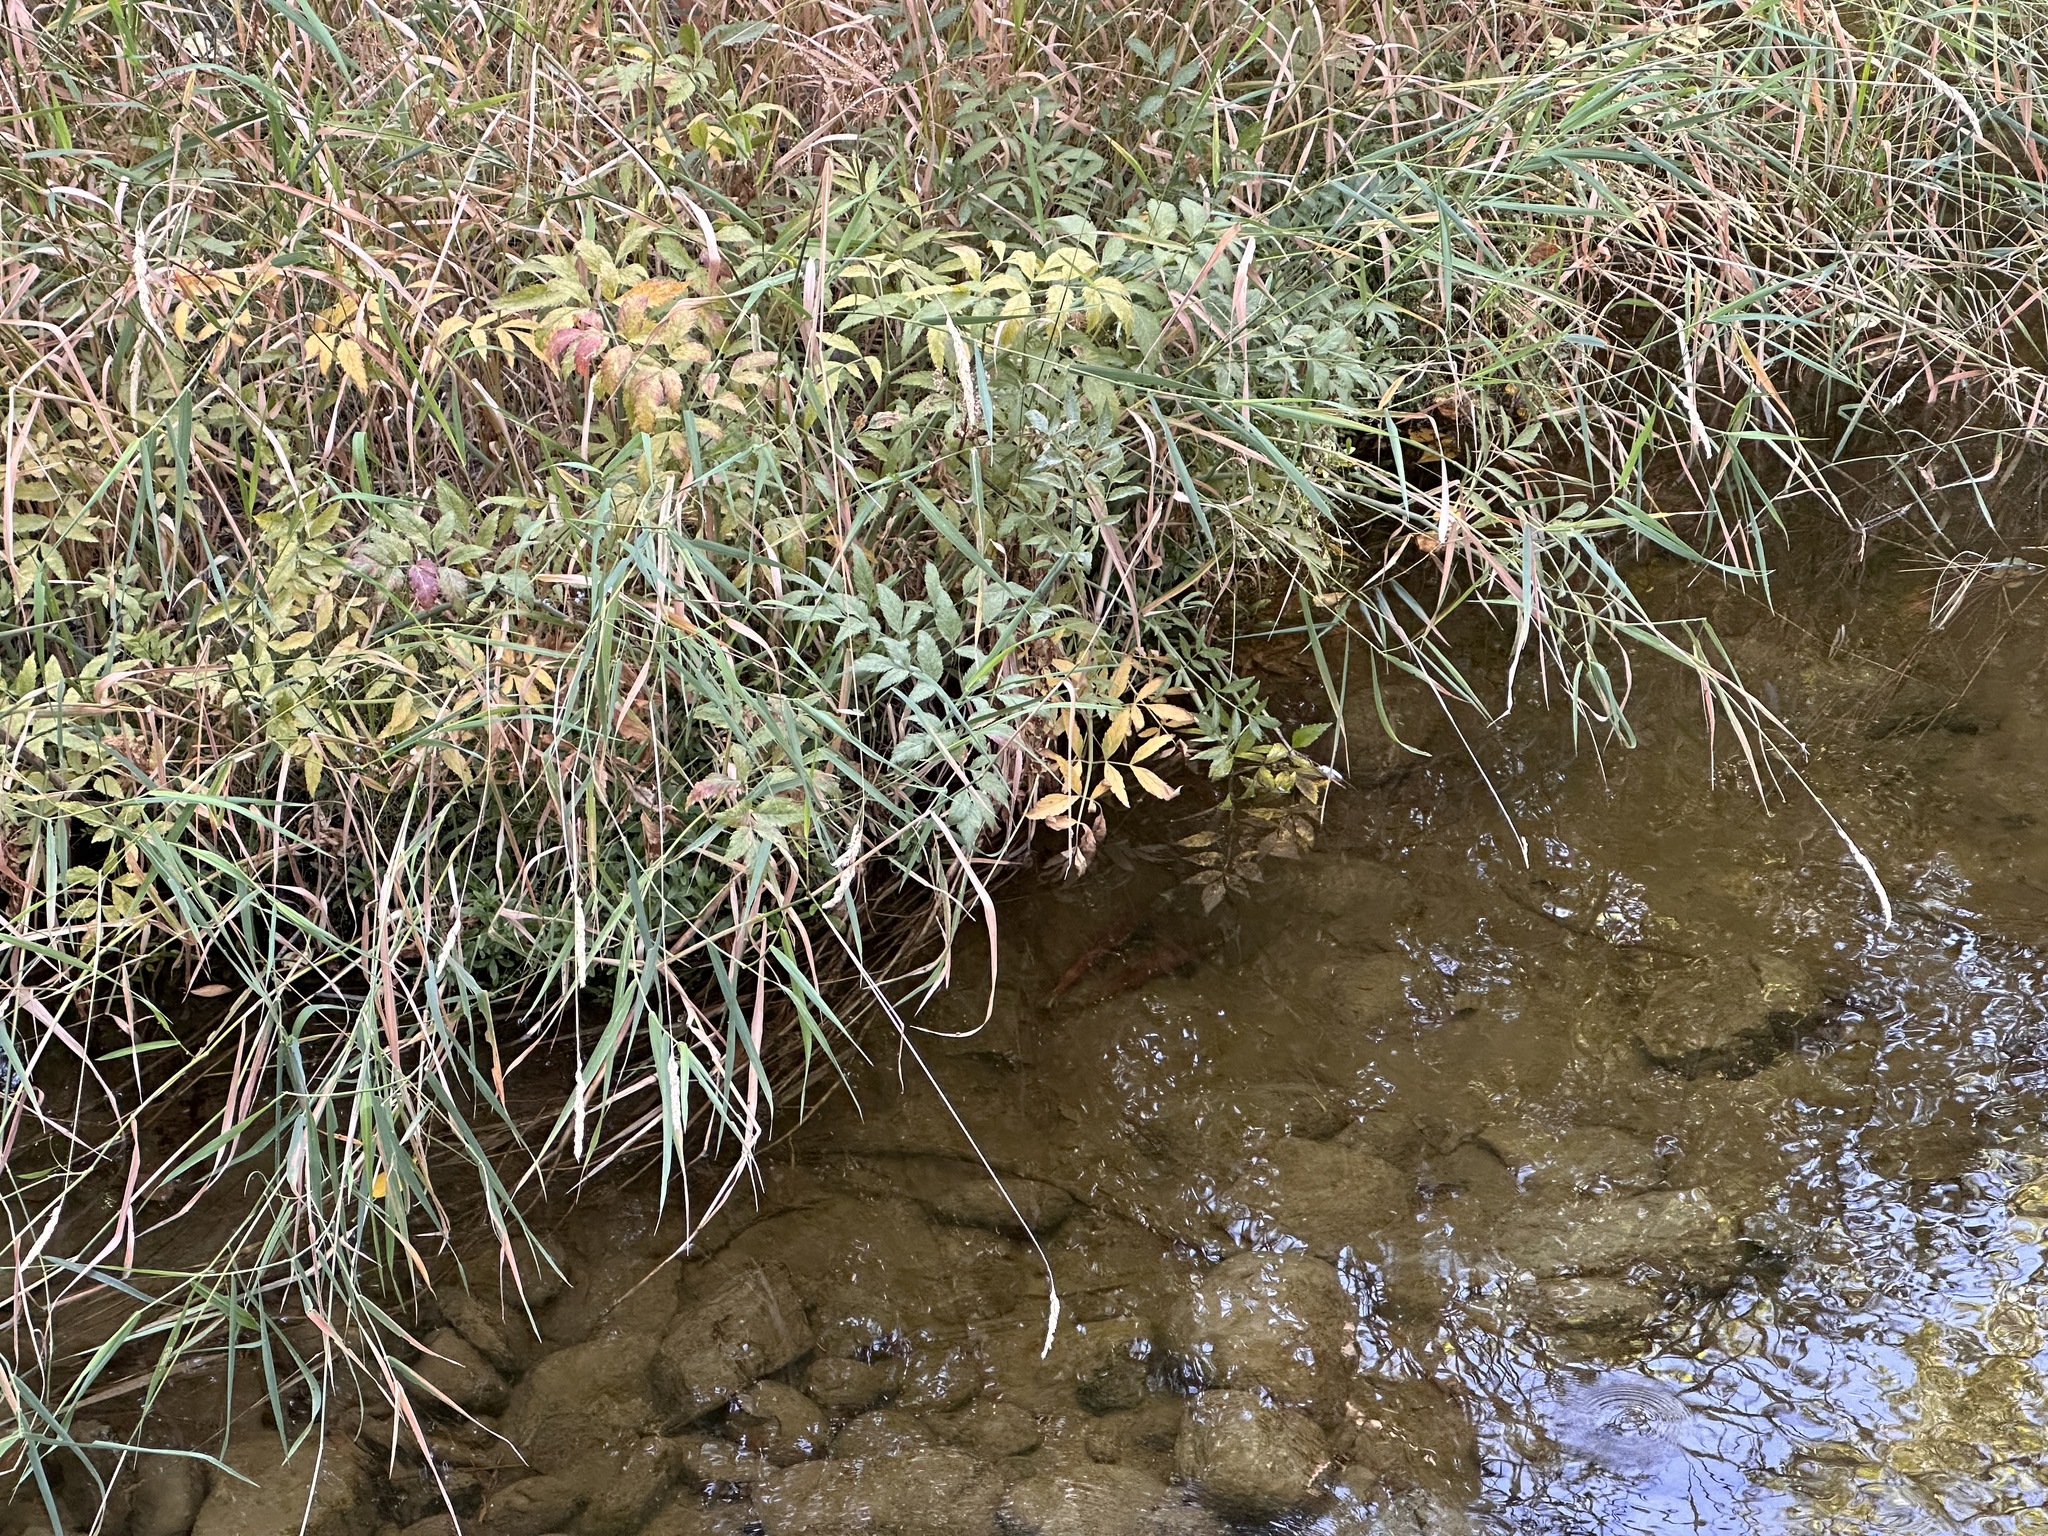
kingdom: Animalia
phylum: Chordata
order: Salmoniformes
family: Salmonidae
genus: Oncorhynchus
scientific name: Oncorhynchus nerka
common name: Sockeye salmon
